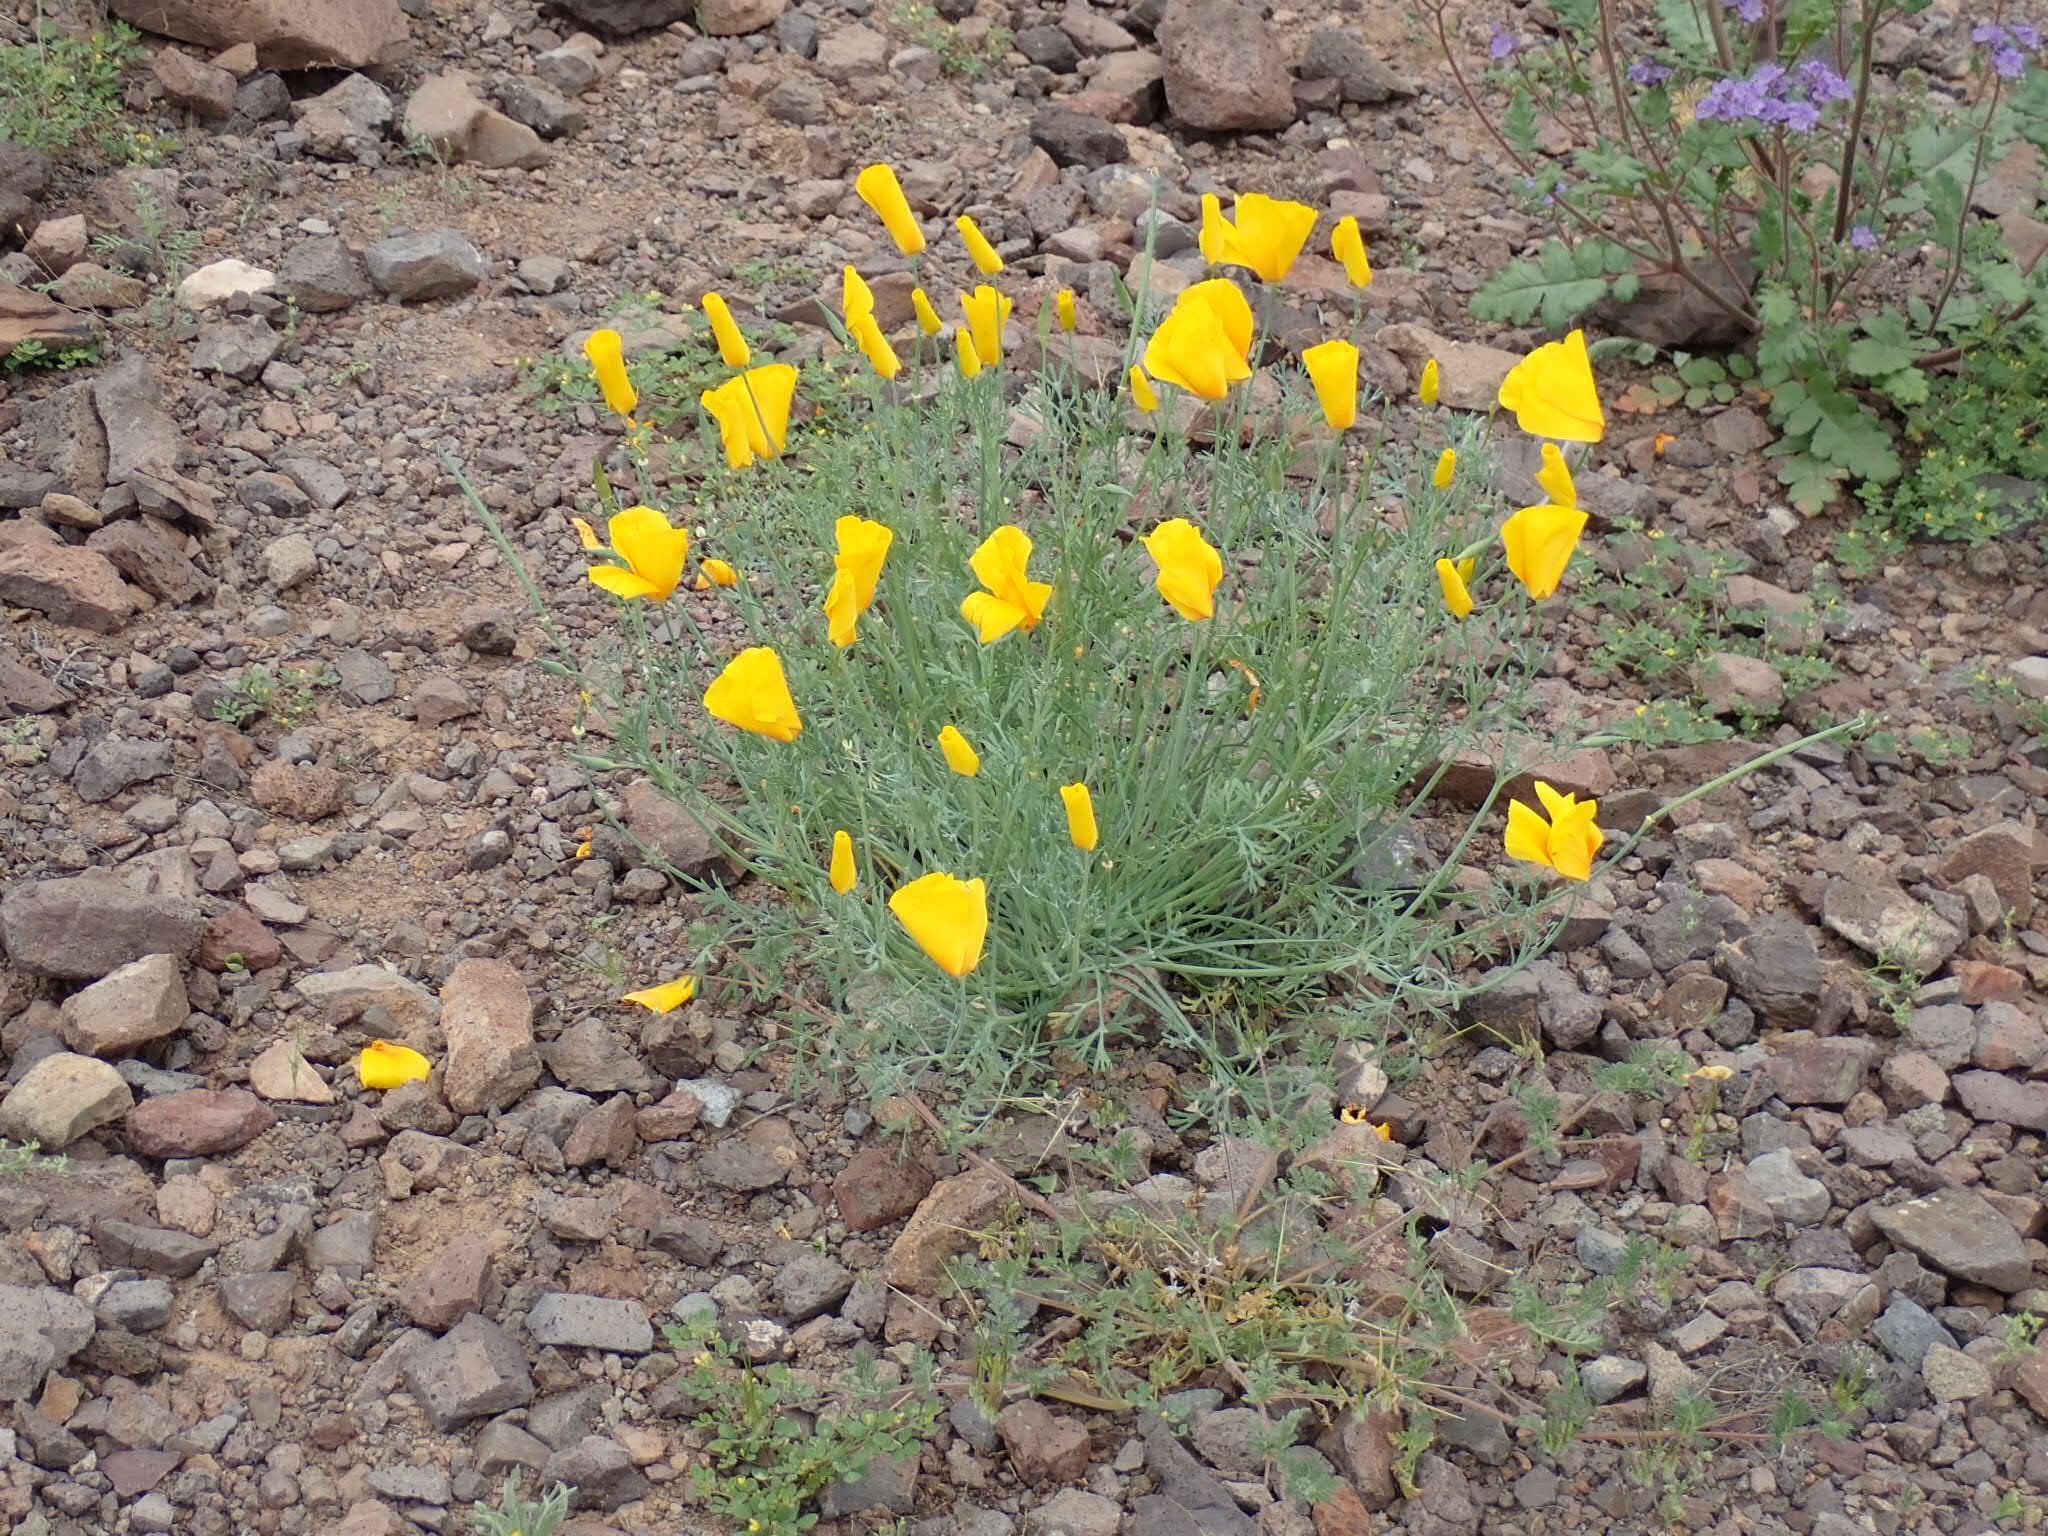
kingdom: Plantae
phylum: Tracheophyta
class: Magnoliopsida
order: Ranunculales
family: Papaveraceae
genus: Eschscholzia
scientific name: Eschscholzia californica
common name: California poppy
